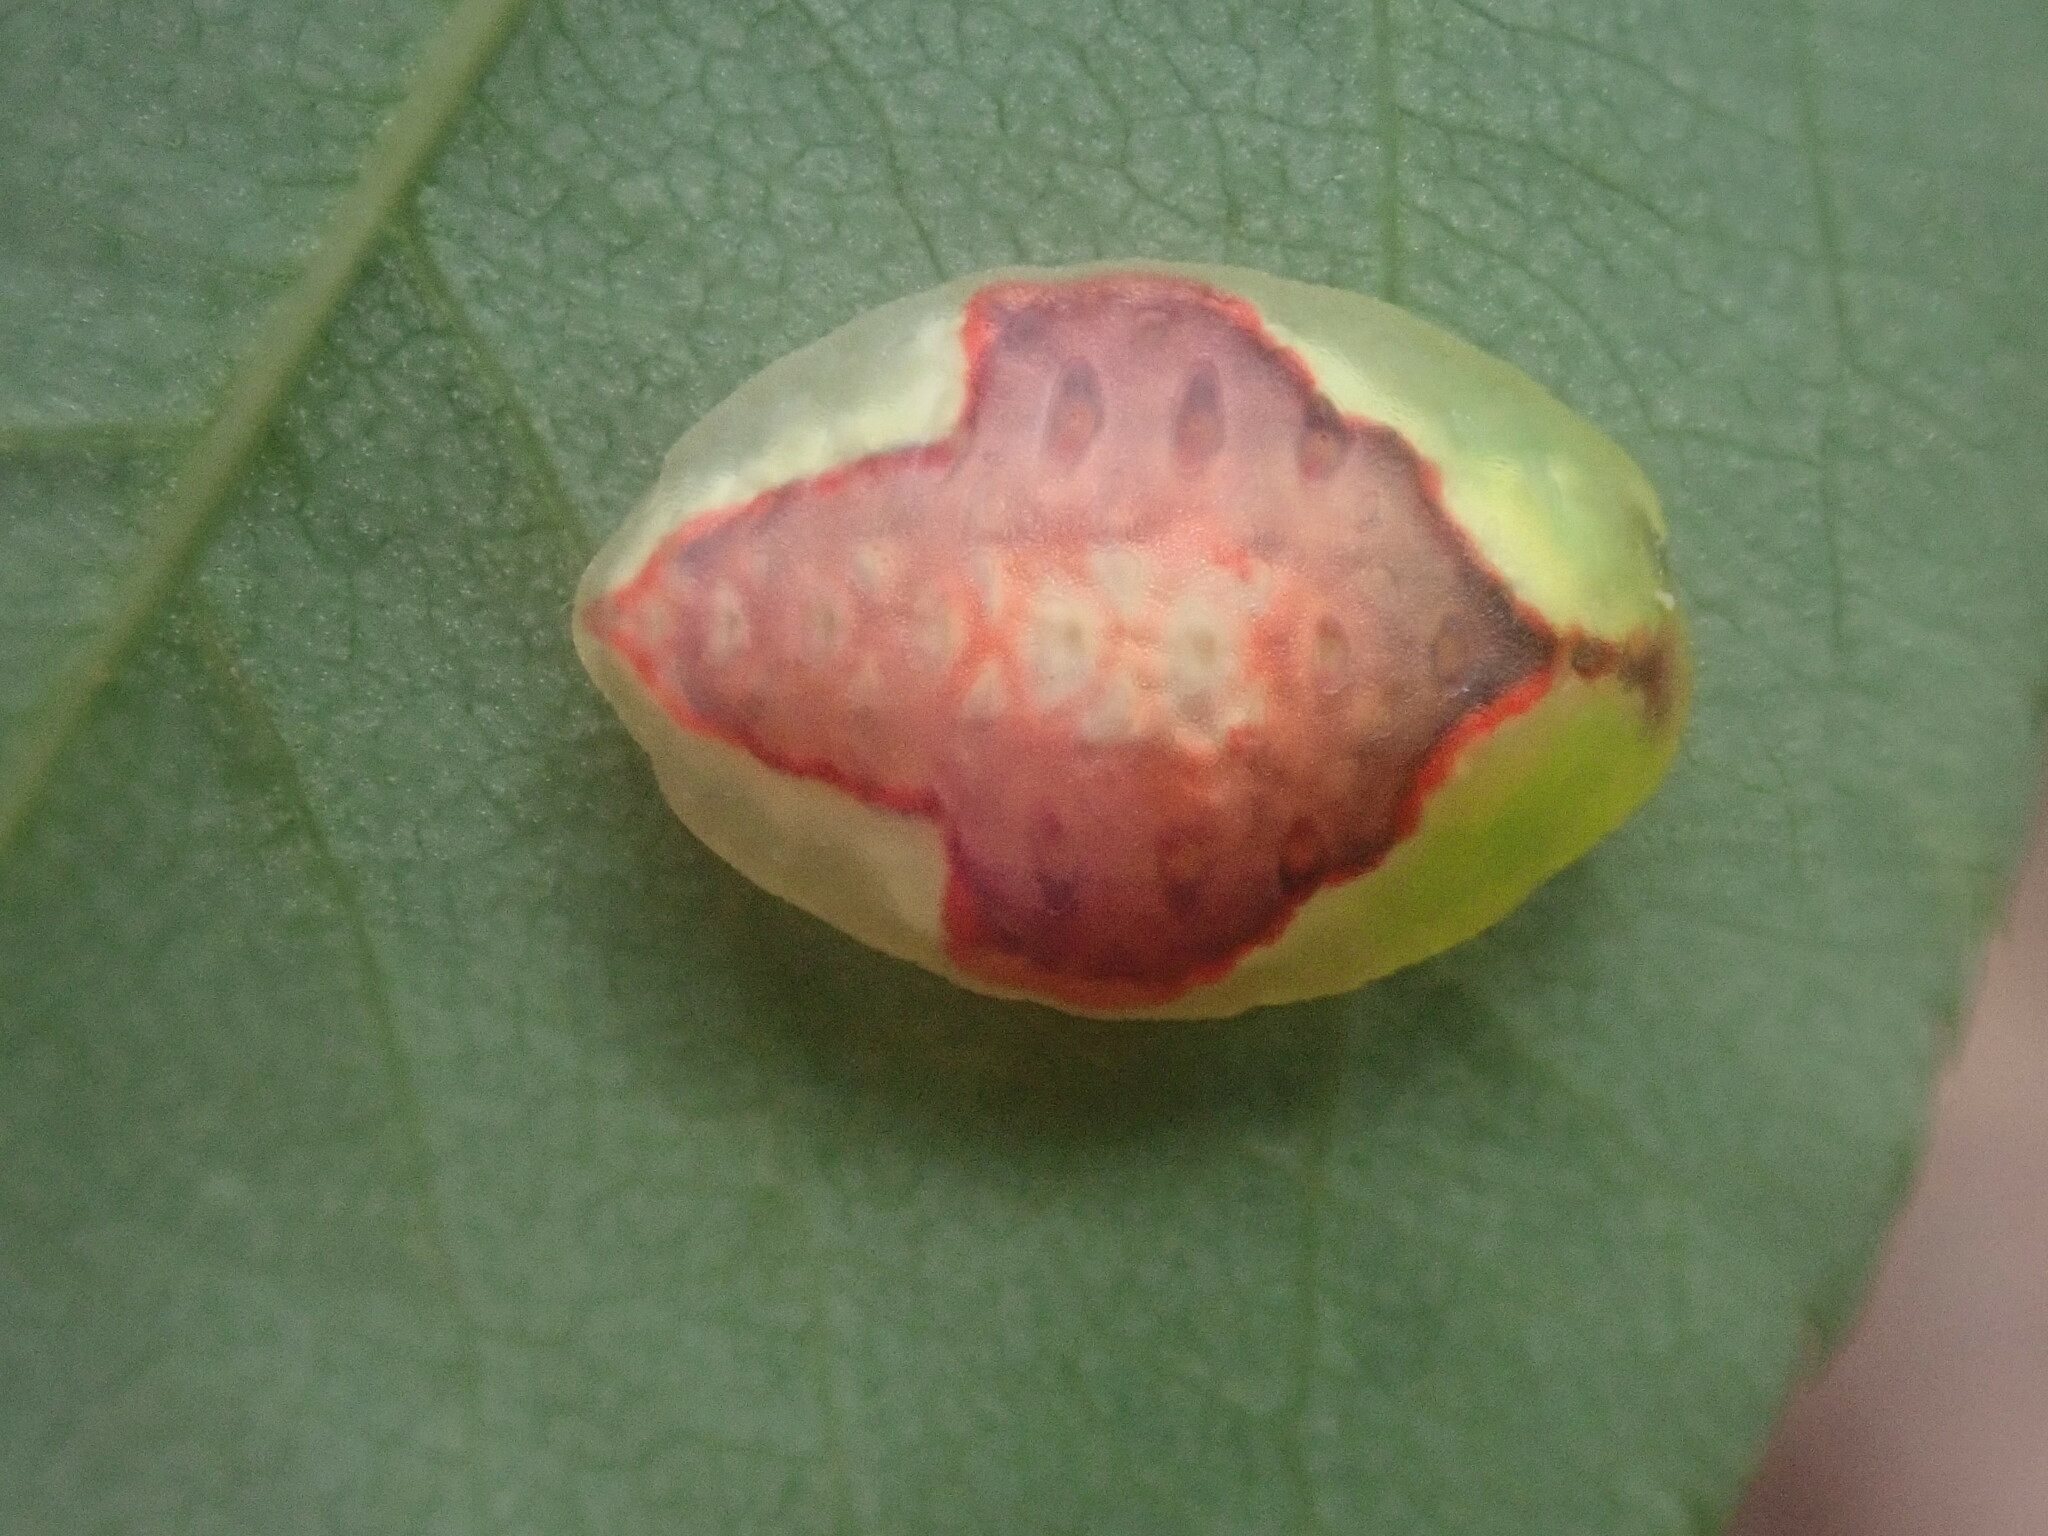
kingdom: Animalia
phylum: Arthropoda
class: Insecta
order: Lepidoptera
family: Limacodidae
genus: Tortricidia
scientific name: Tortricidia pallida
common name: Red-crossed button slug moth
